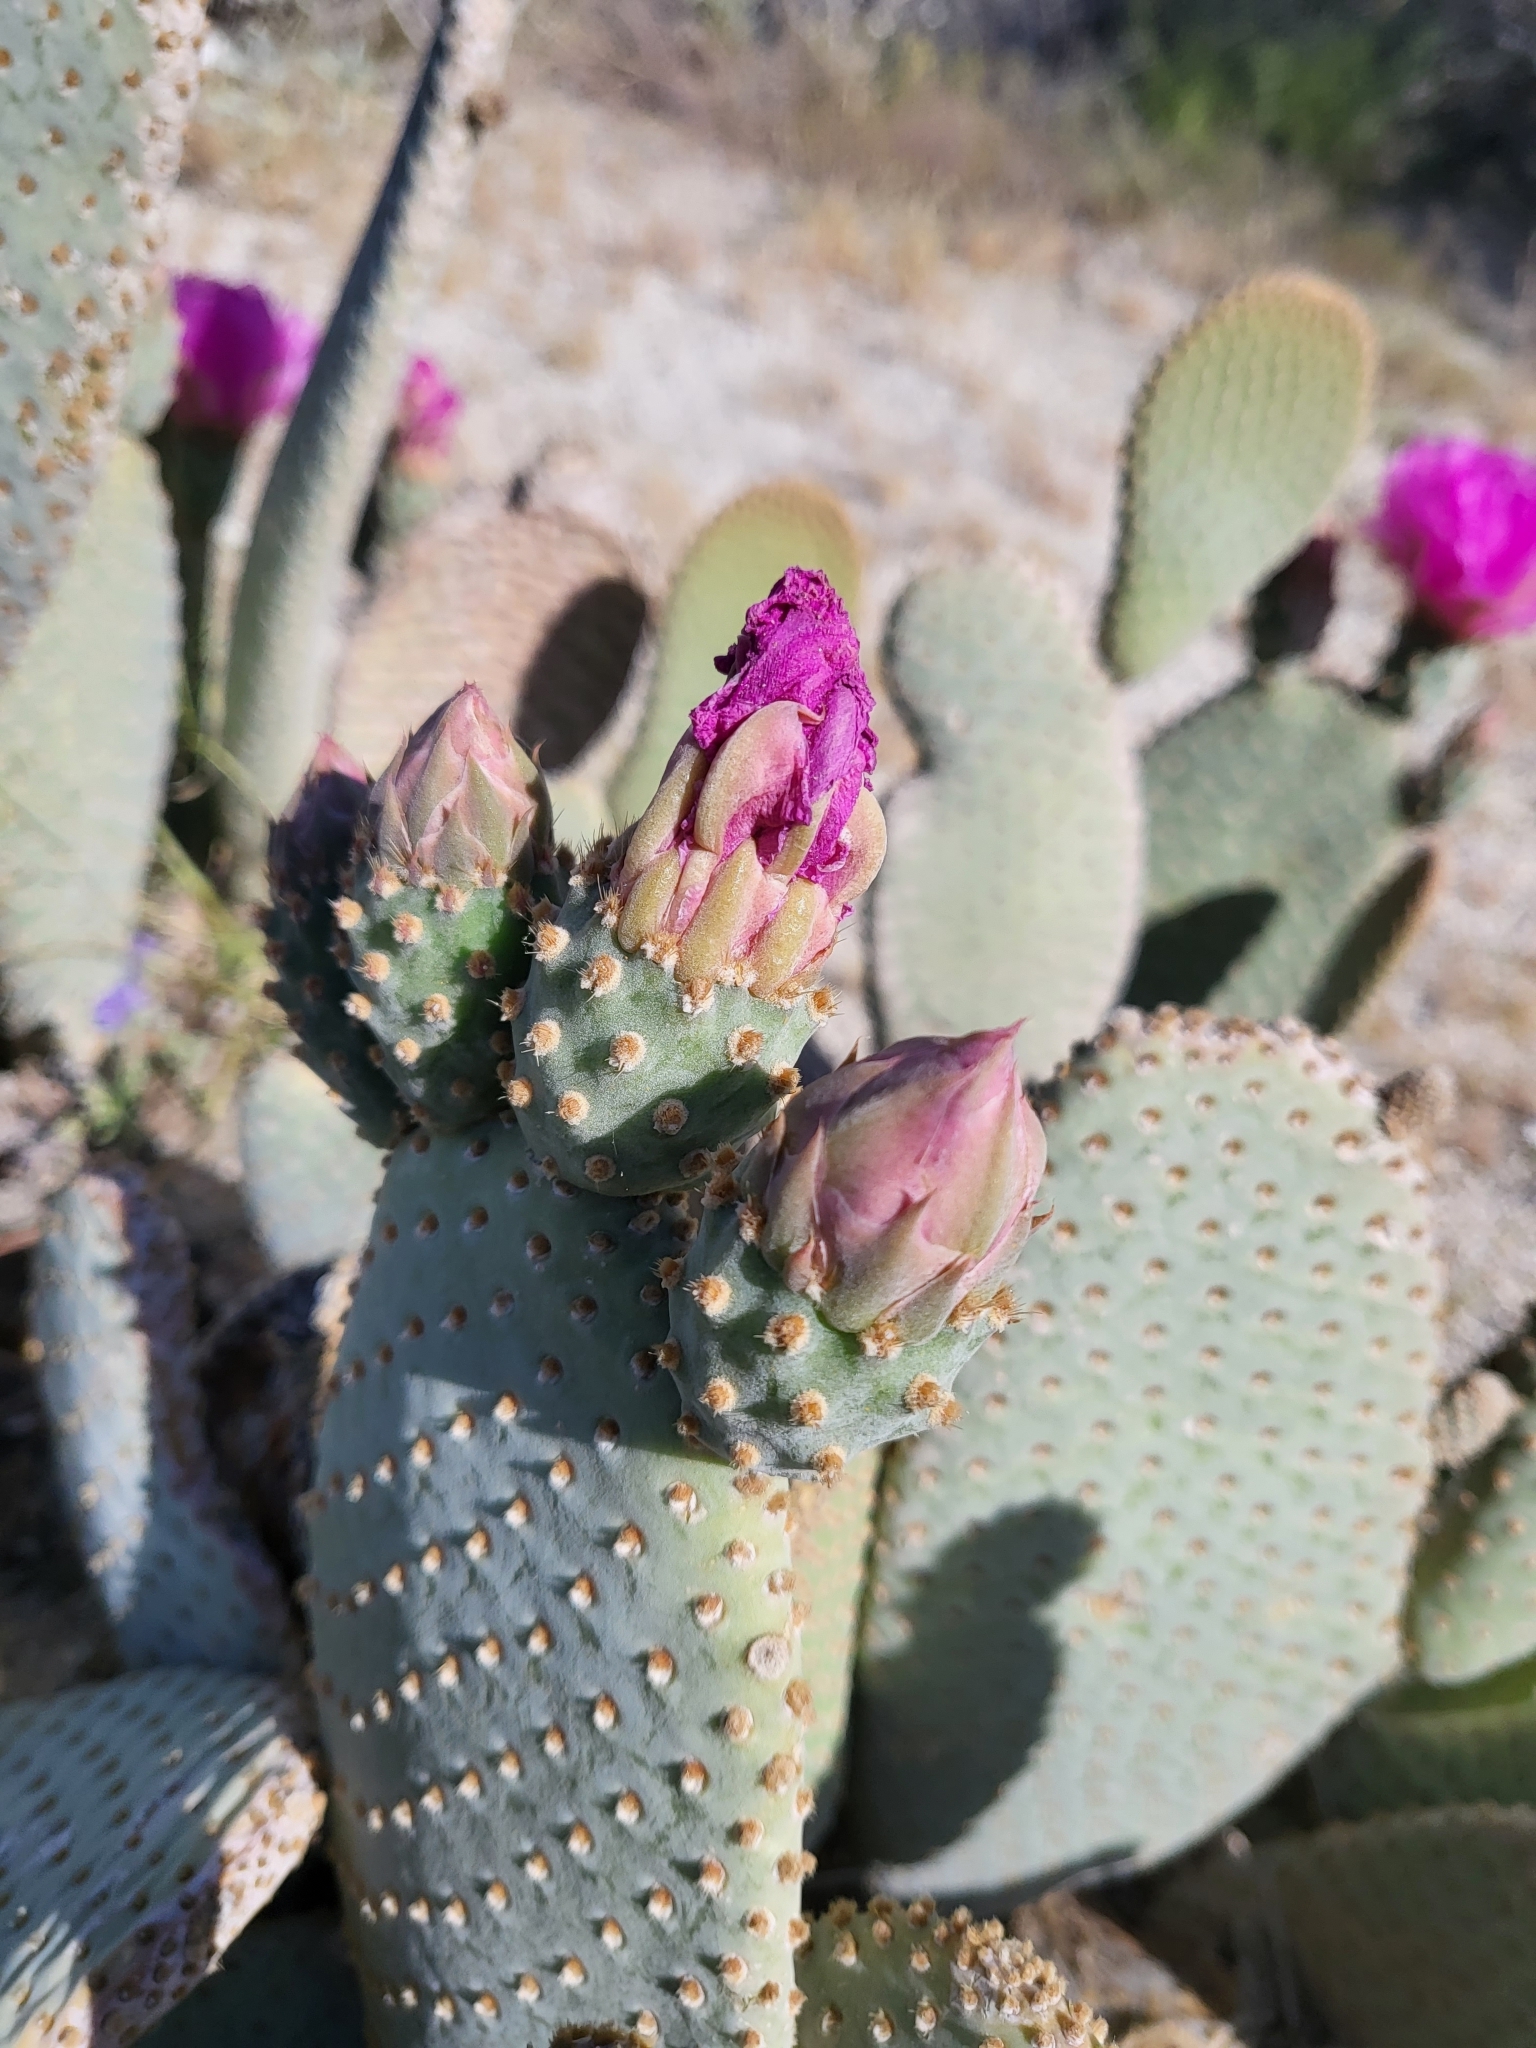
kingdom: Plantae
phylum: Tracheophyta
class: Magnoliopsida
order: Caryophyllales
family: Cactaceae
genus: Opuntia
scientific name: Opuntia basilaris
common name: Beavertail prickly-pear
